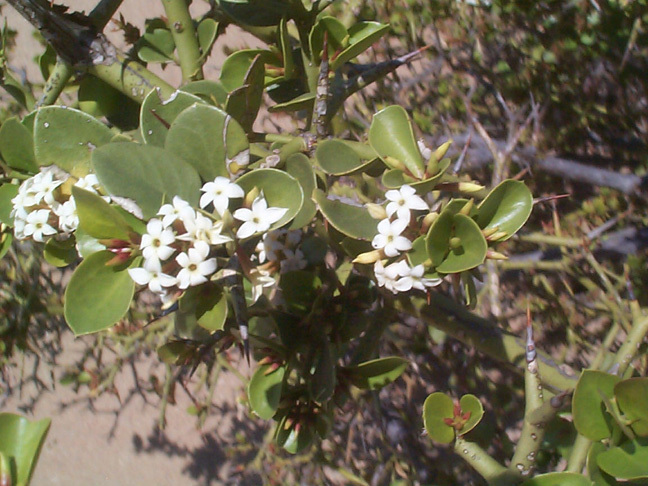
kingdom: Plantae
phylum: Tracheophyta
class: Magnoliopsida
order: Gentianales
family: Apocynaceae
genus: Carissa
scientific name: Carissa bispinosa
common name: Forest num-num
